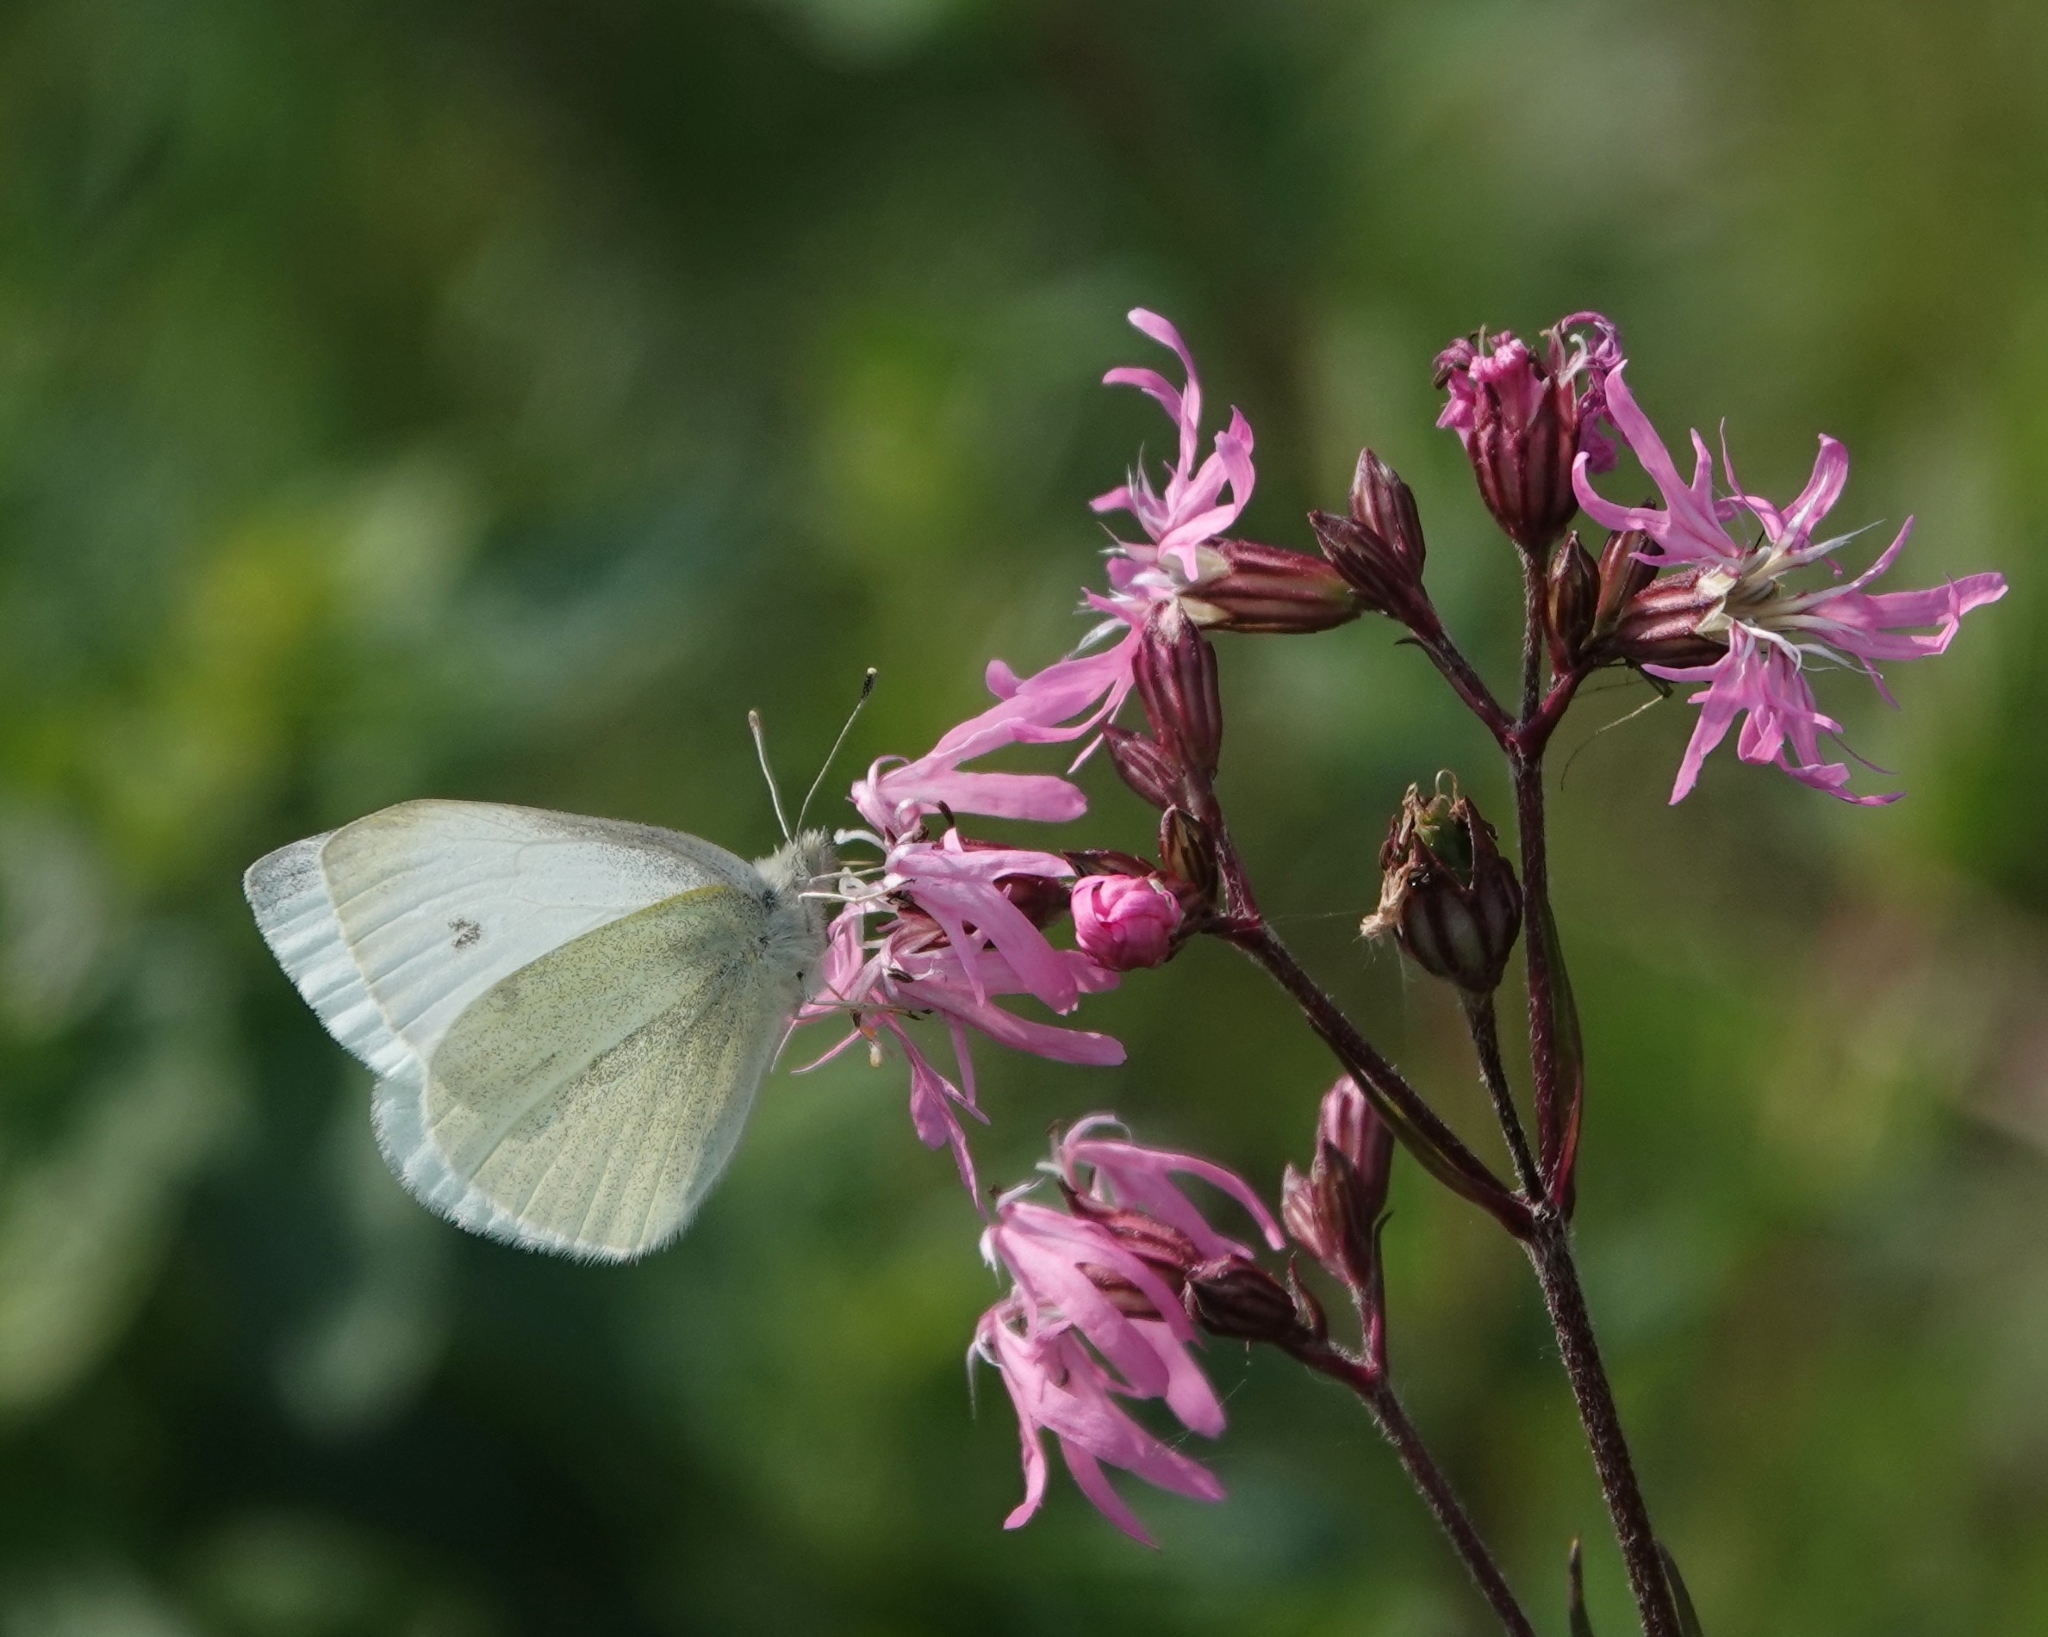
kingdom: Animalia
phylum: Arthropoda
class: Insecta
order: Lepidoptera
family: Pieridae
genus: Pieris
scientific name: Pieris rapae
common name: Small white
